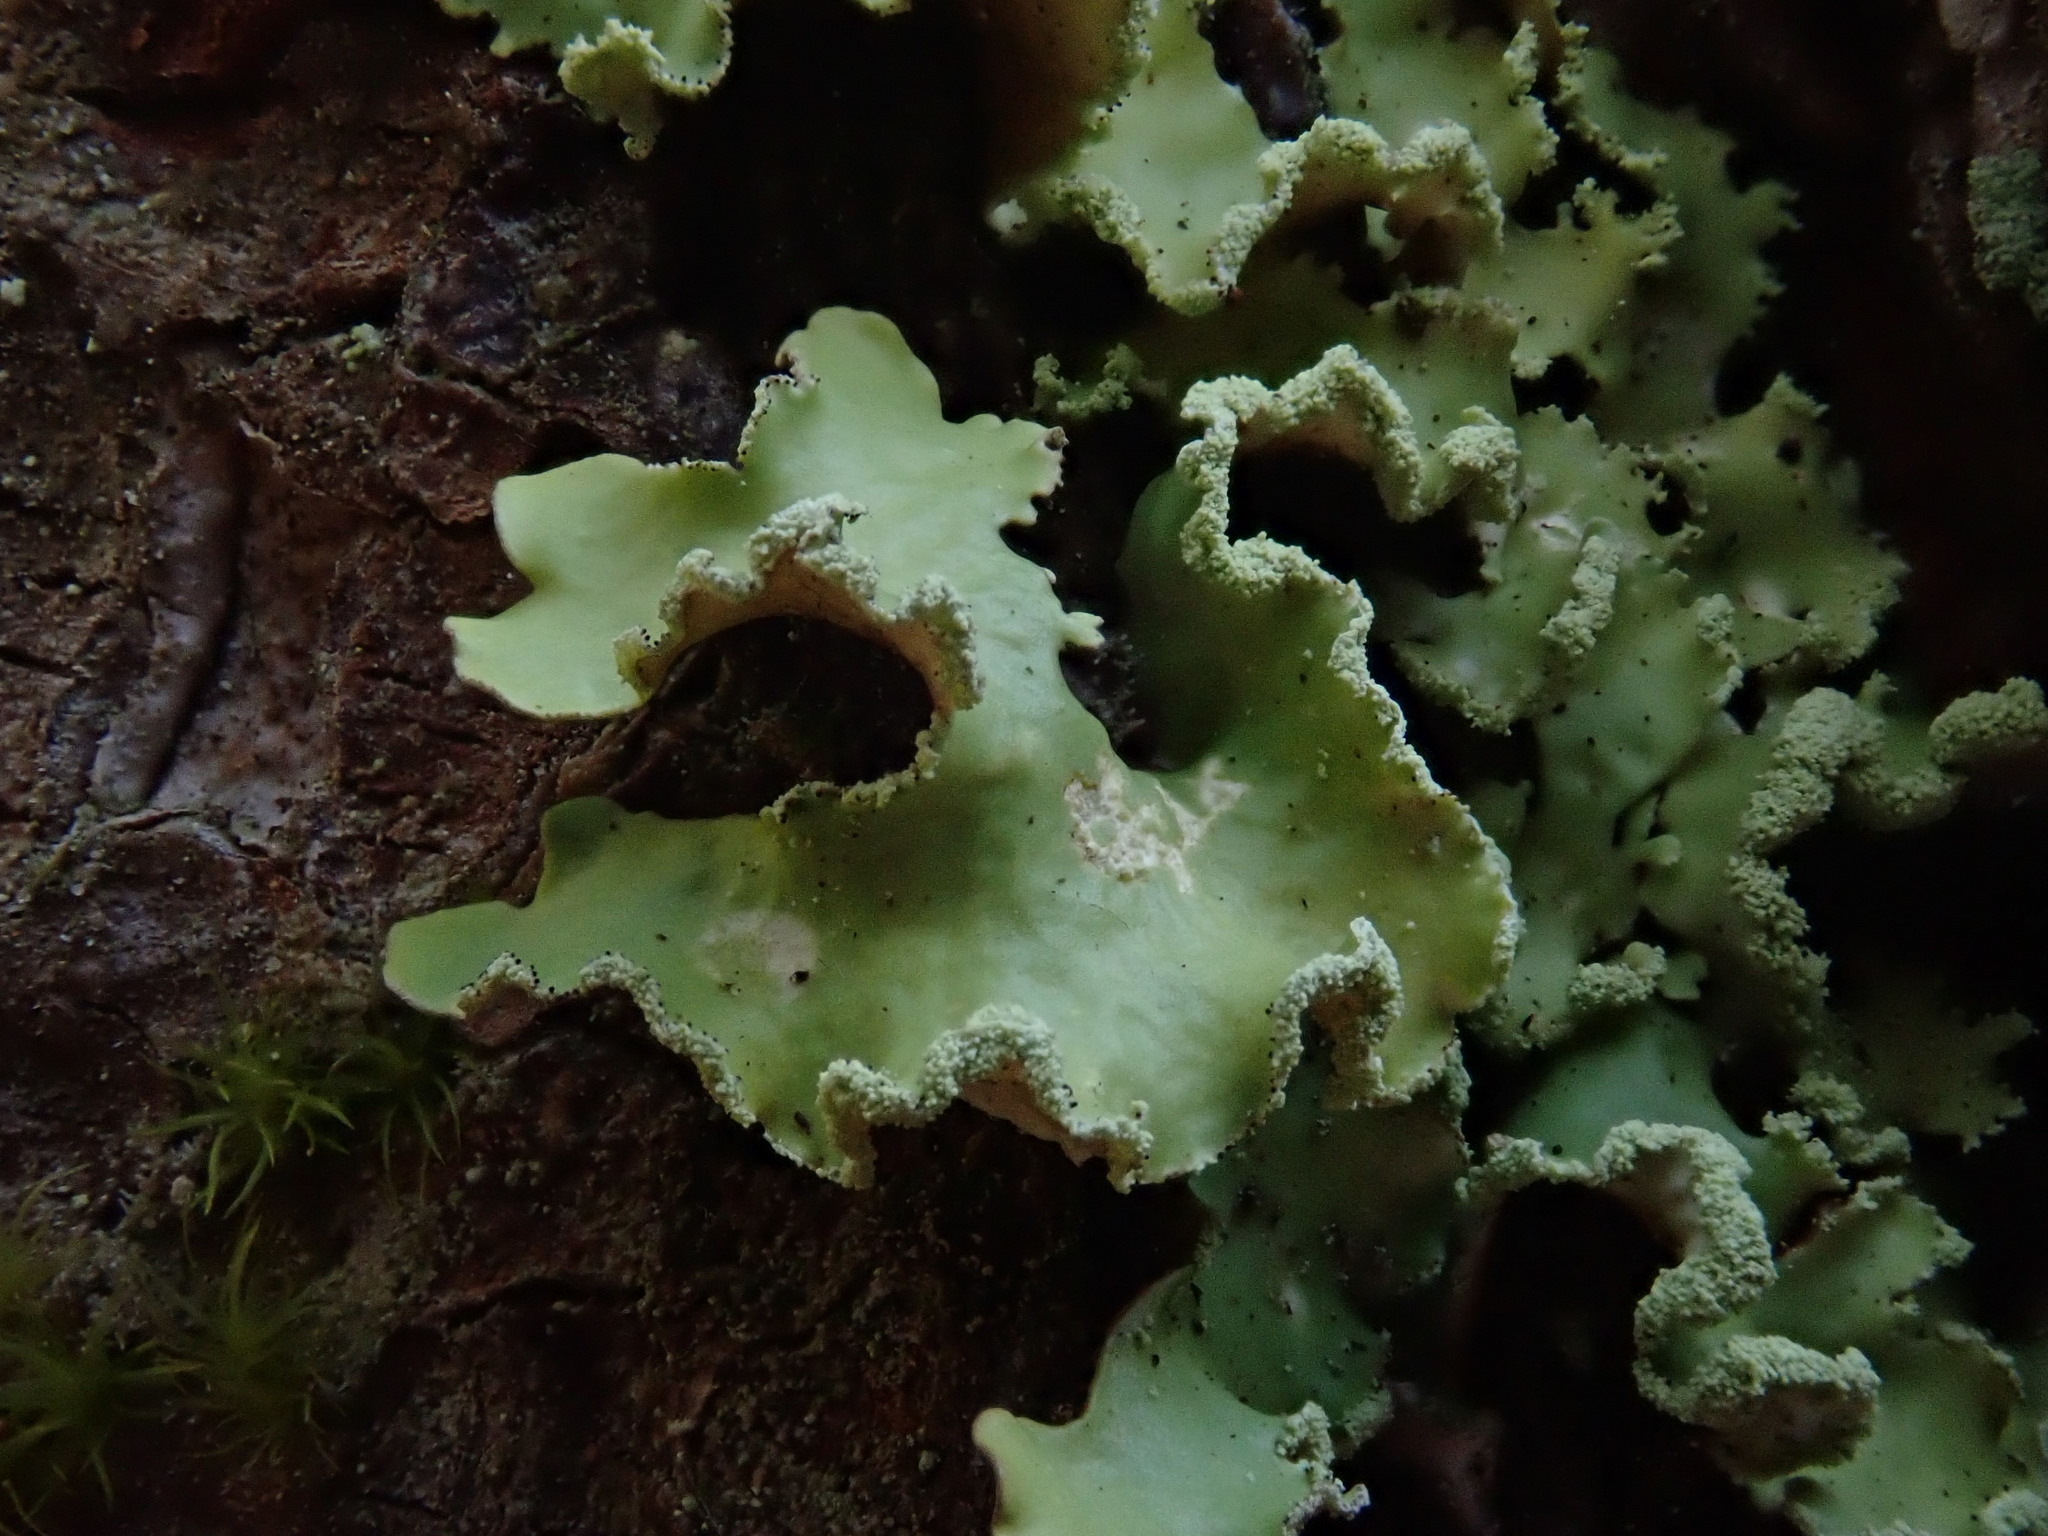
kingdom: Fungi
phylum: Ascomycota
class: Lecanoromycetes
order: Lecanorales
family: Parmeliaceae
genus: Usnocetraria
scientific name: Usnocetraria oakesiana
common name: Yellow ribbon lichen
